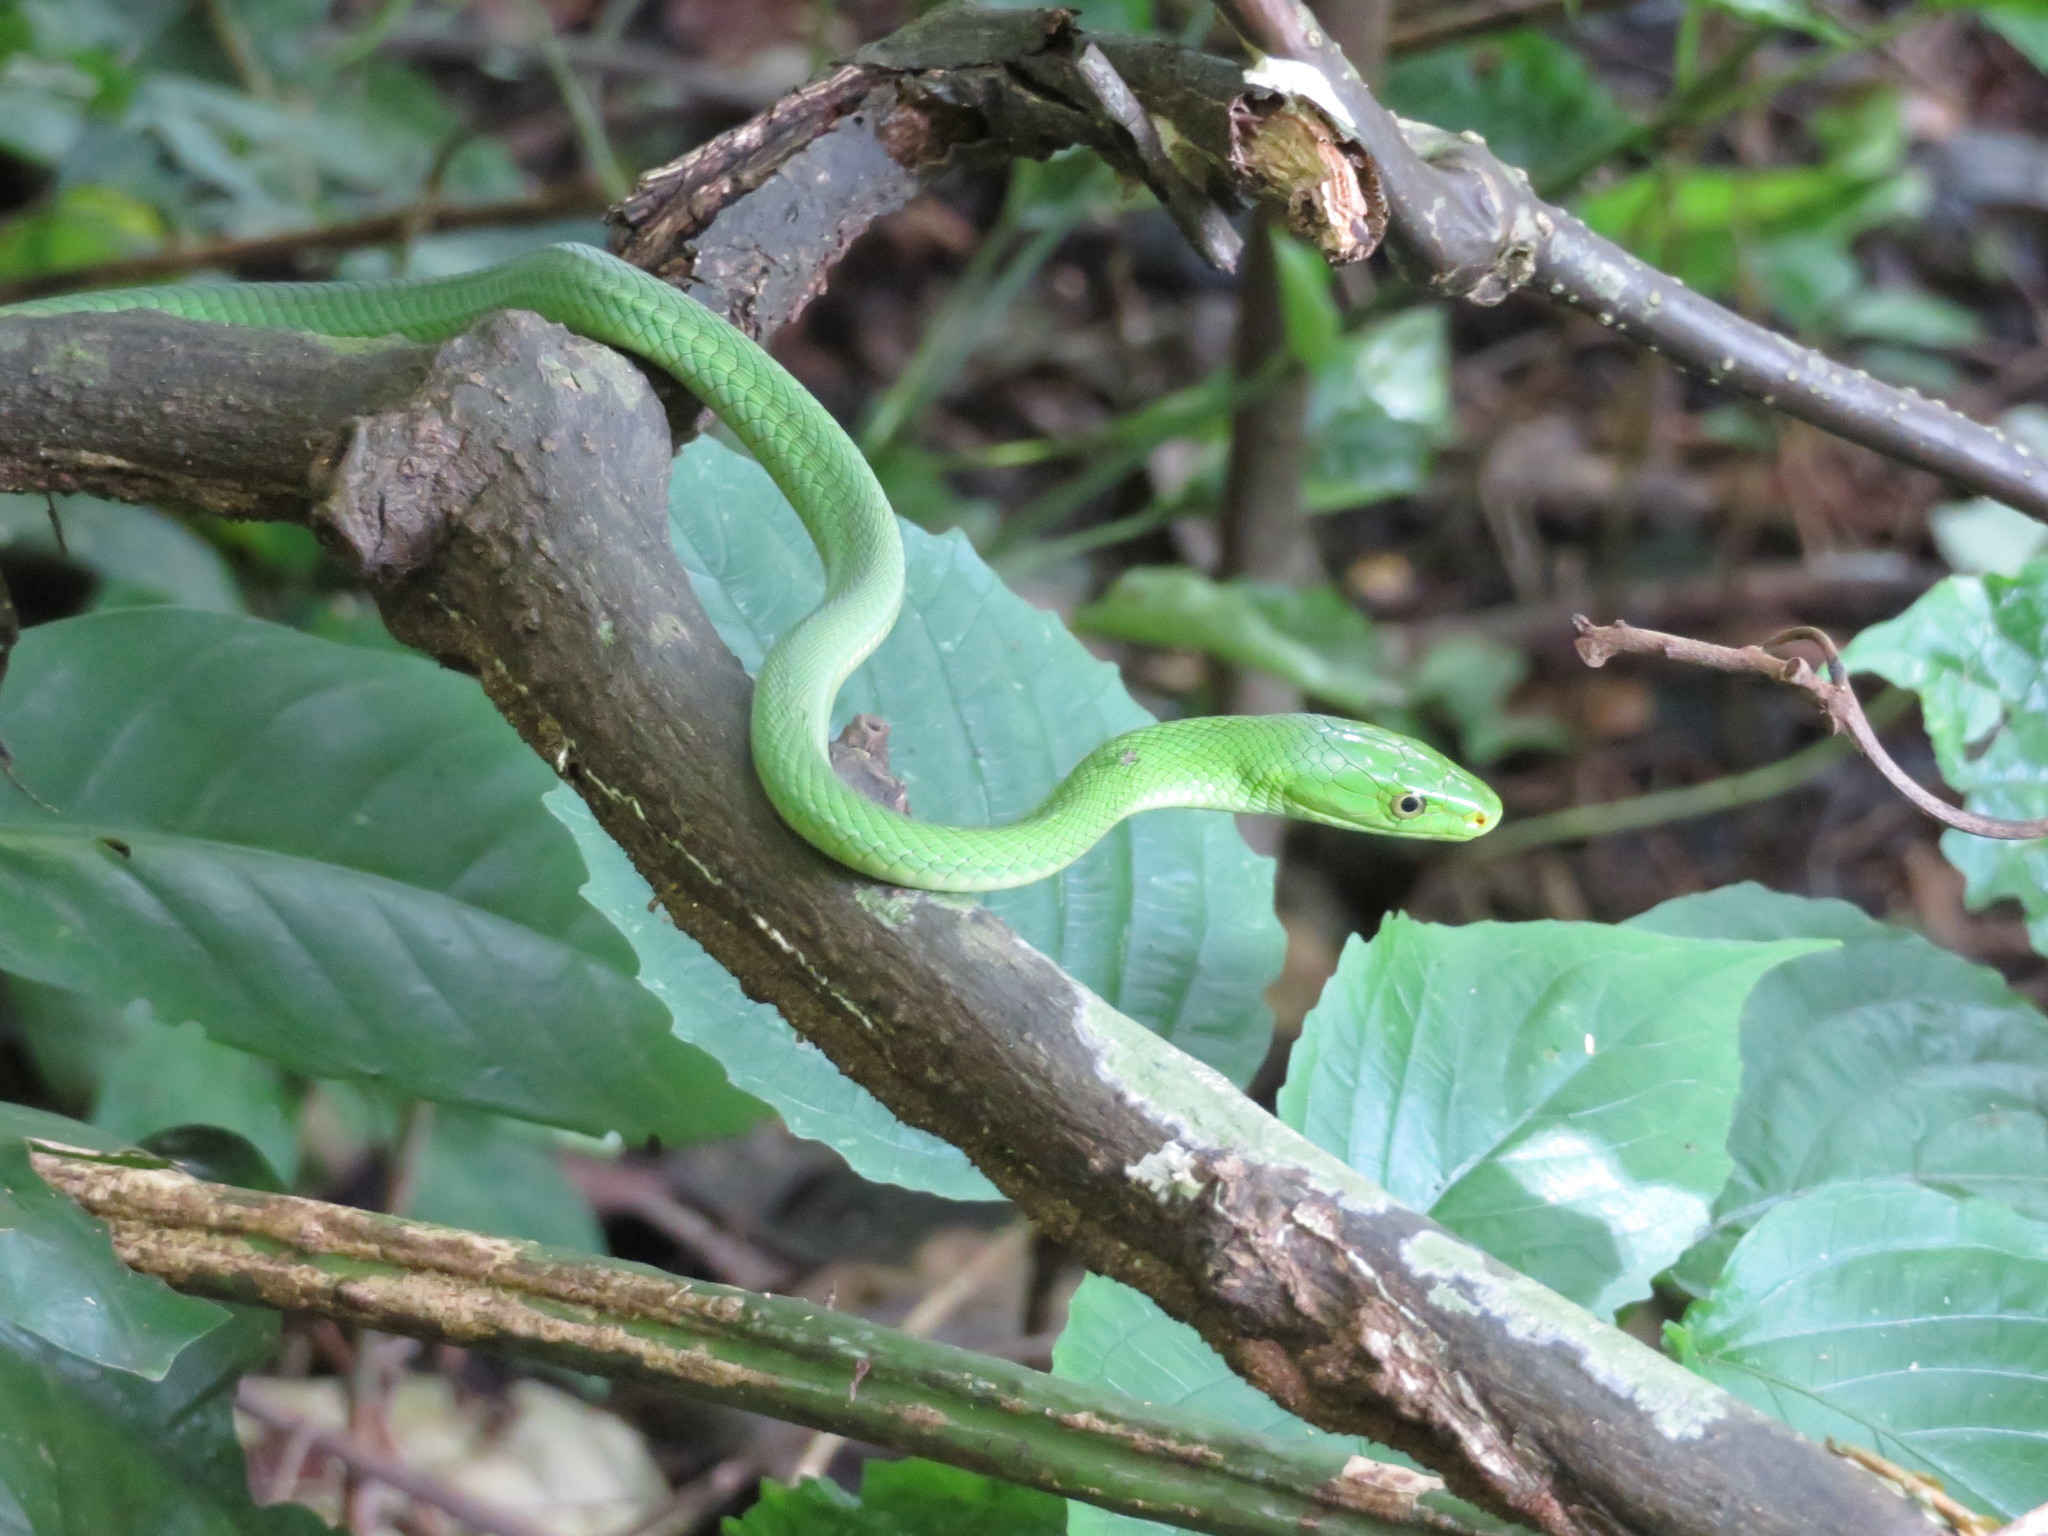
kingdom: Animalia
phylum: Chordata
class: Squamata
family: Elapidae
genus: Dendroaspis
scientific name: Dendroaspis angusticeps
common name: Green mamba
